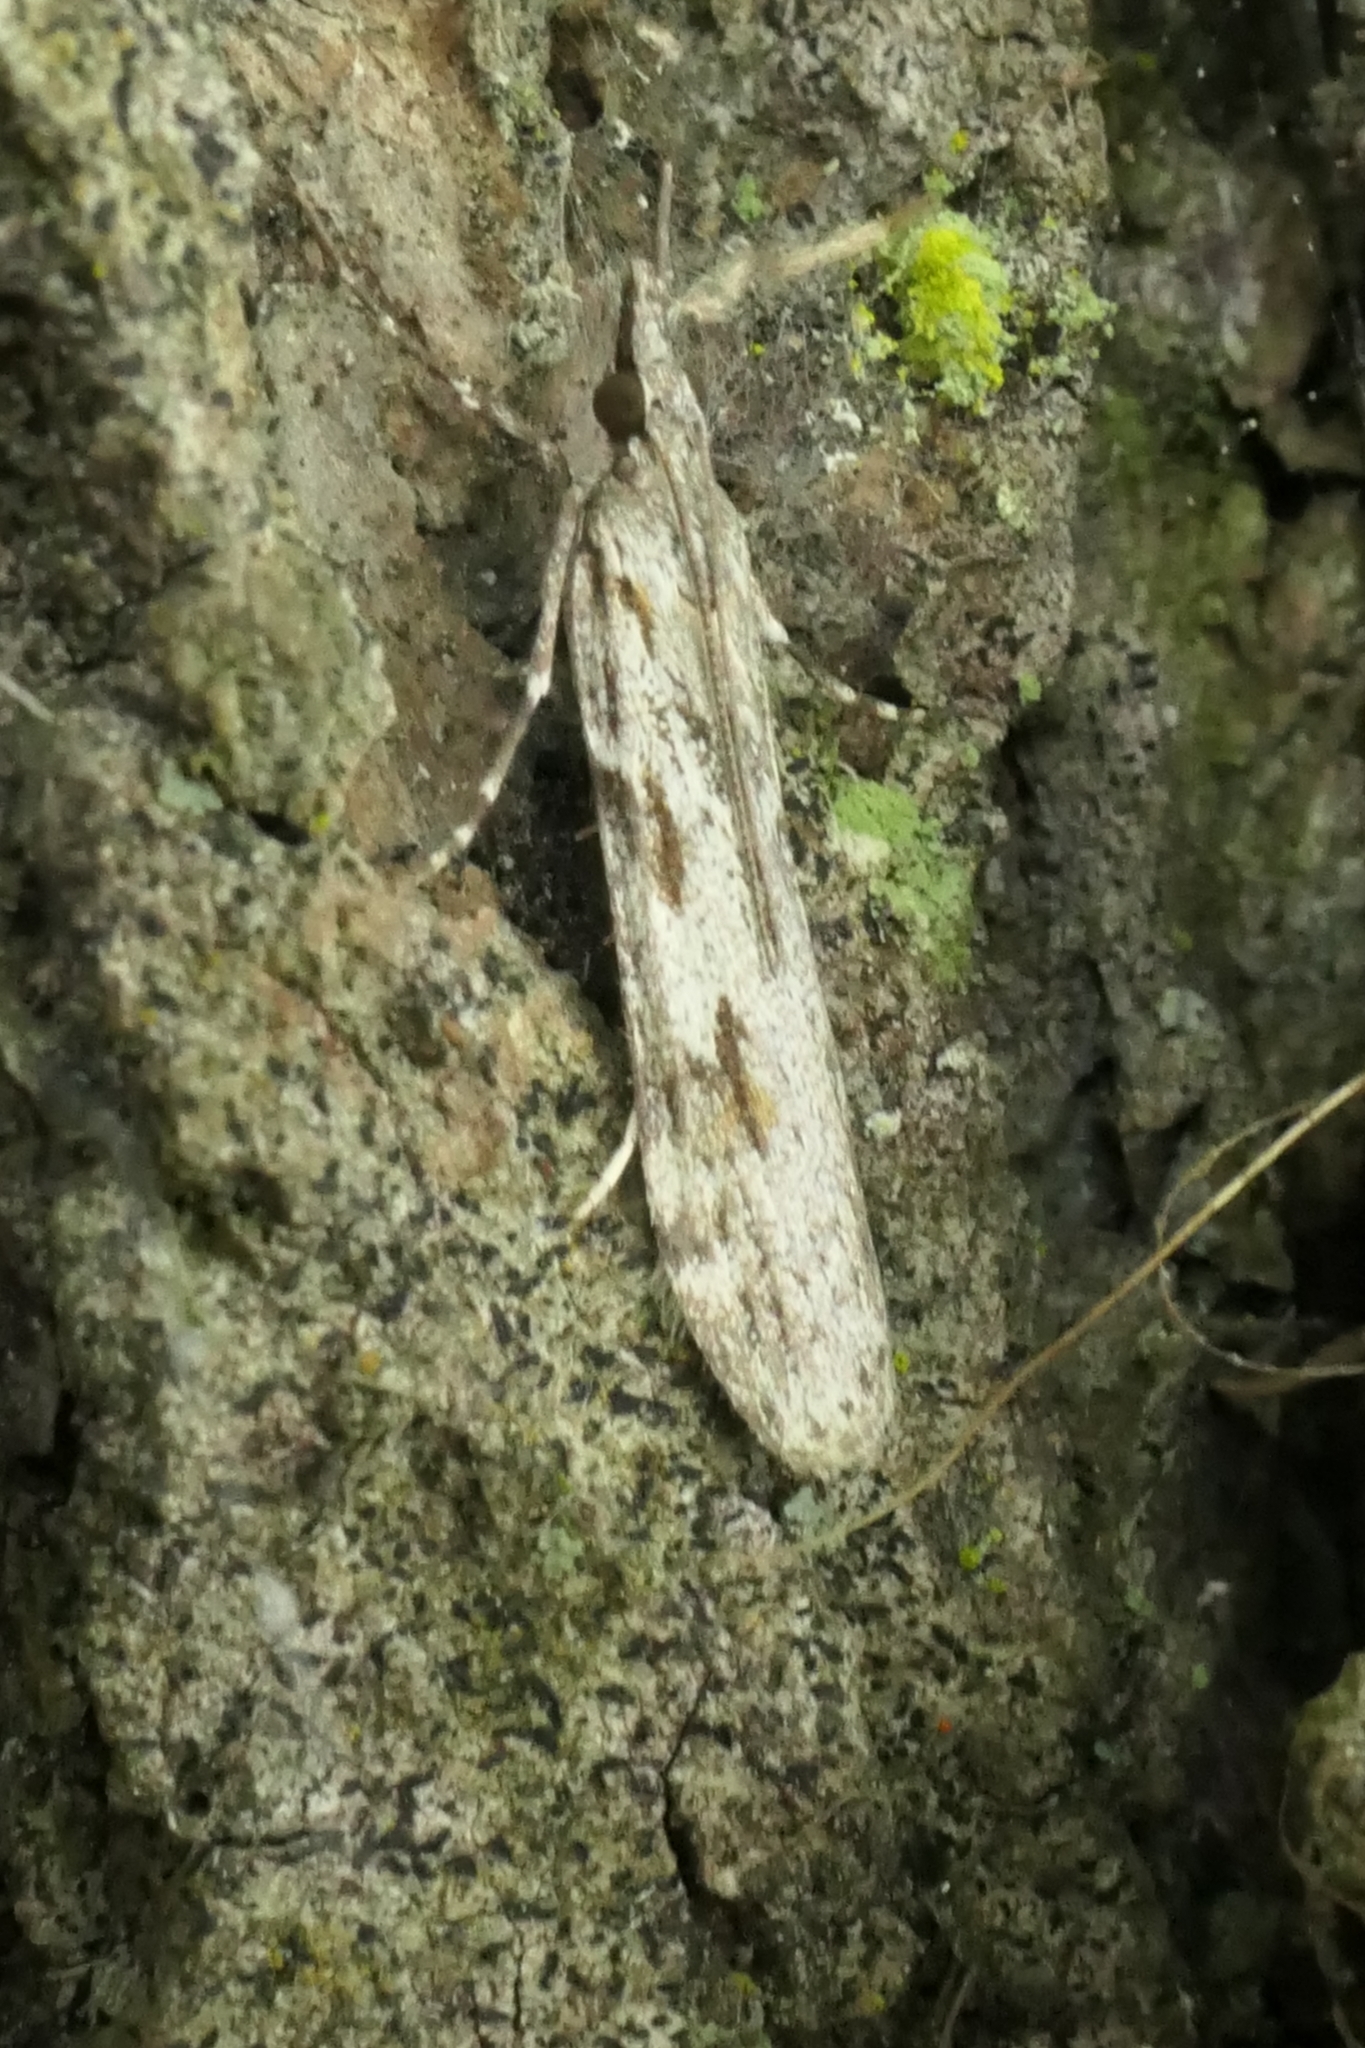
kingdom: Animalia
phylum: Arthropoda
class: Insecta
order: Lepidoptera
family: Crambidae
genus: Scoparia
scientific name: Scoparia halopis
